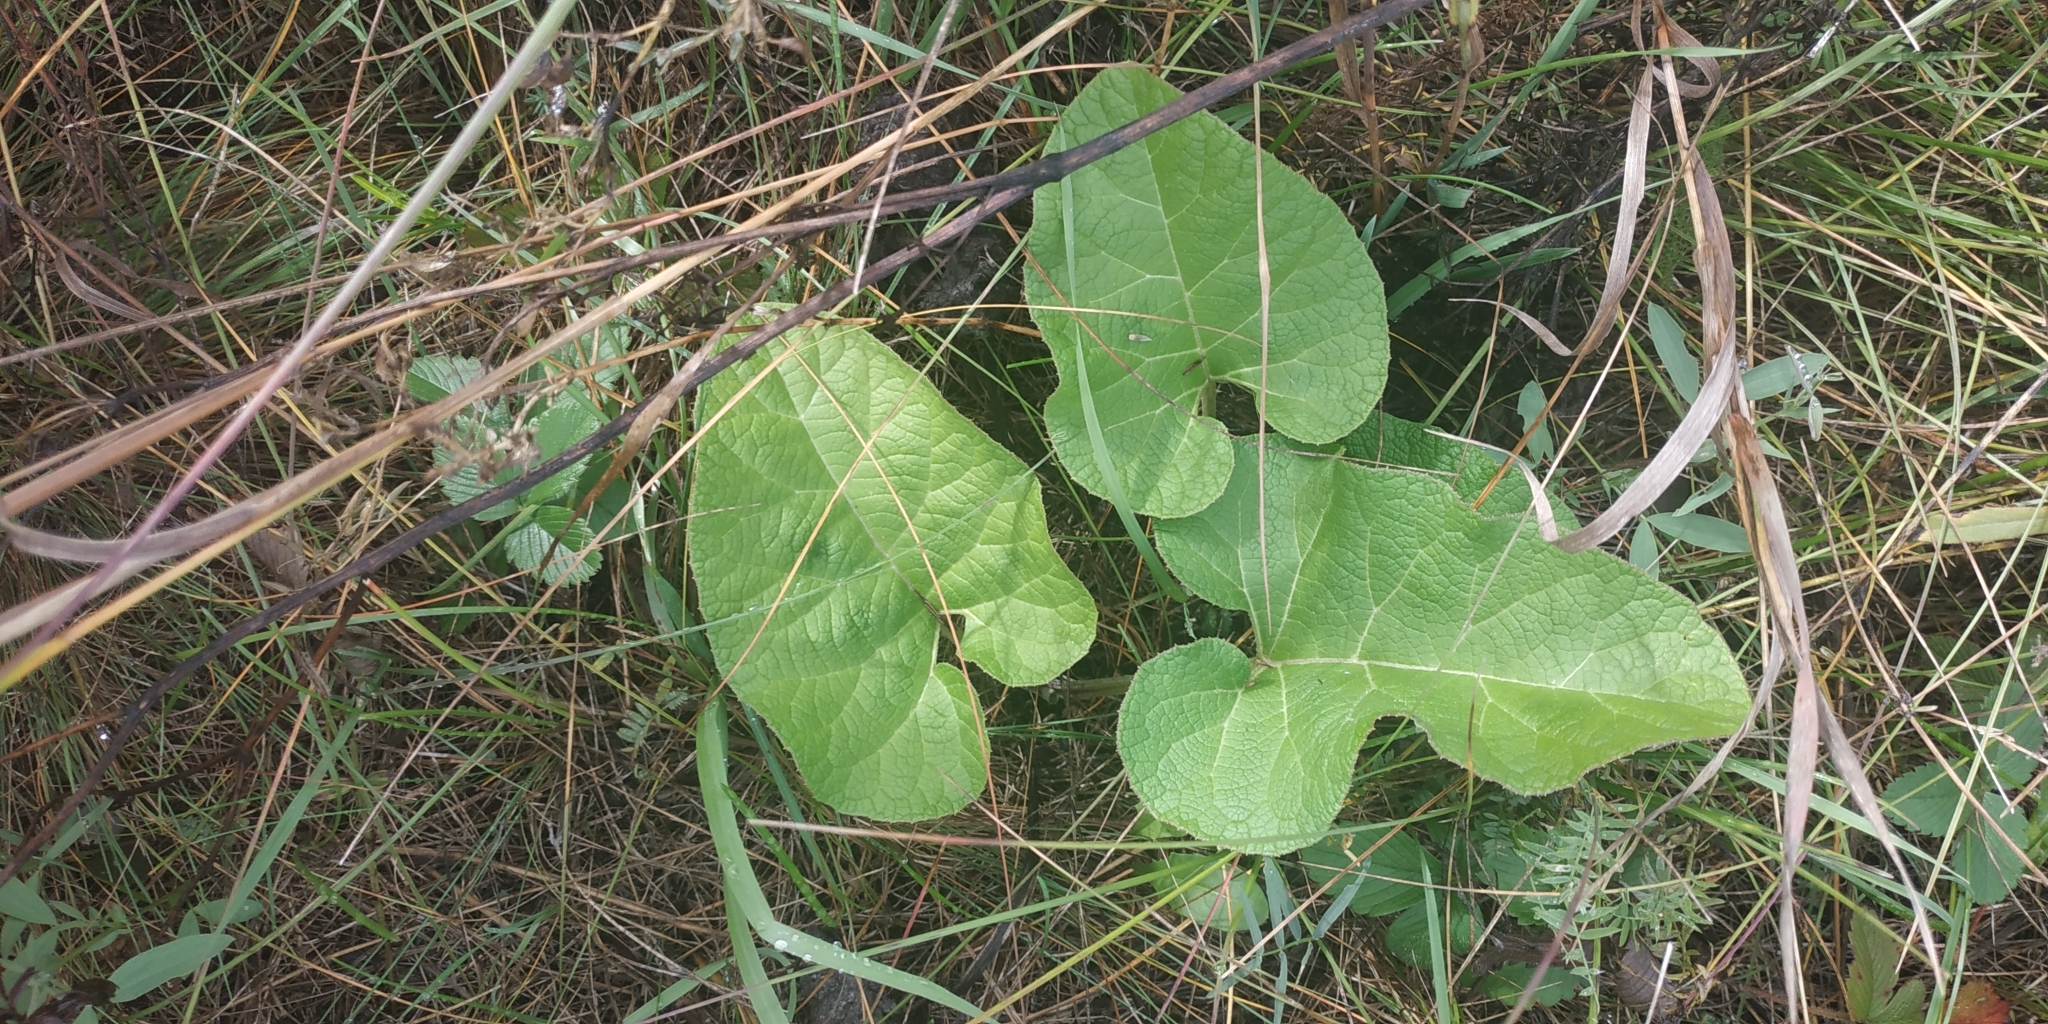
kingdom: Plantae
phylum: Tracheophyta
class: Magnoliopsida
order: Asterales
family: Asteraceae
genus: Arctium
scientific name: Arctium tomentosum
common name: Woolly burdock
